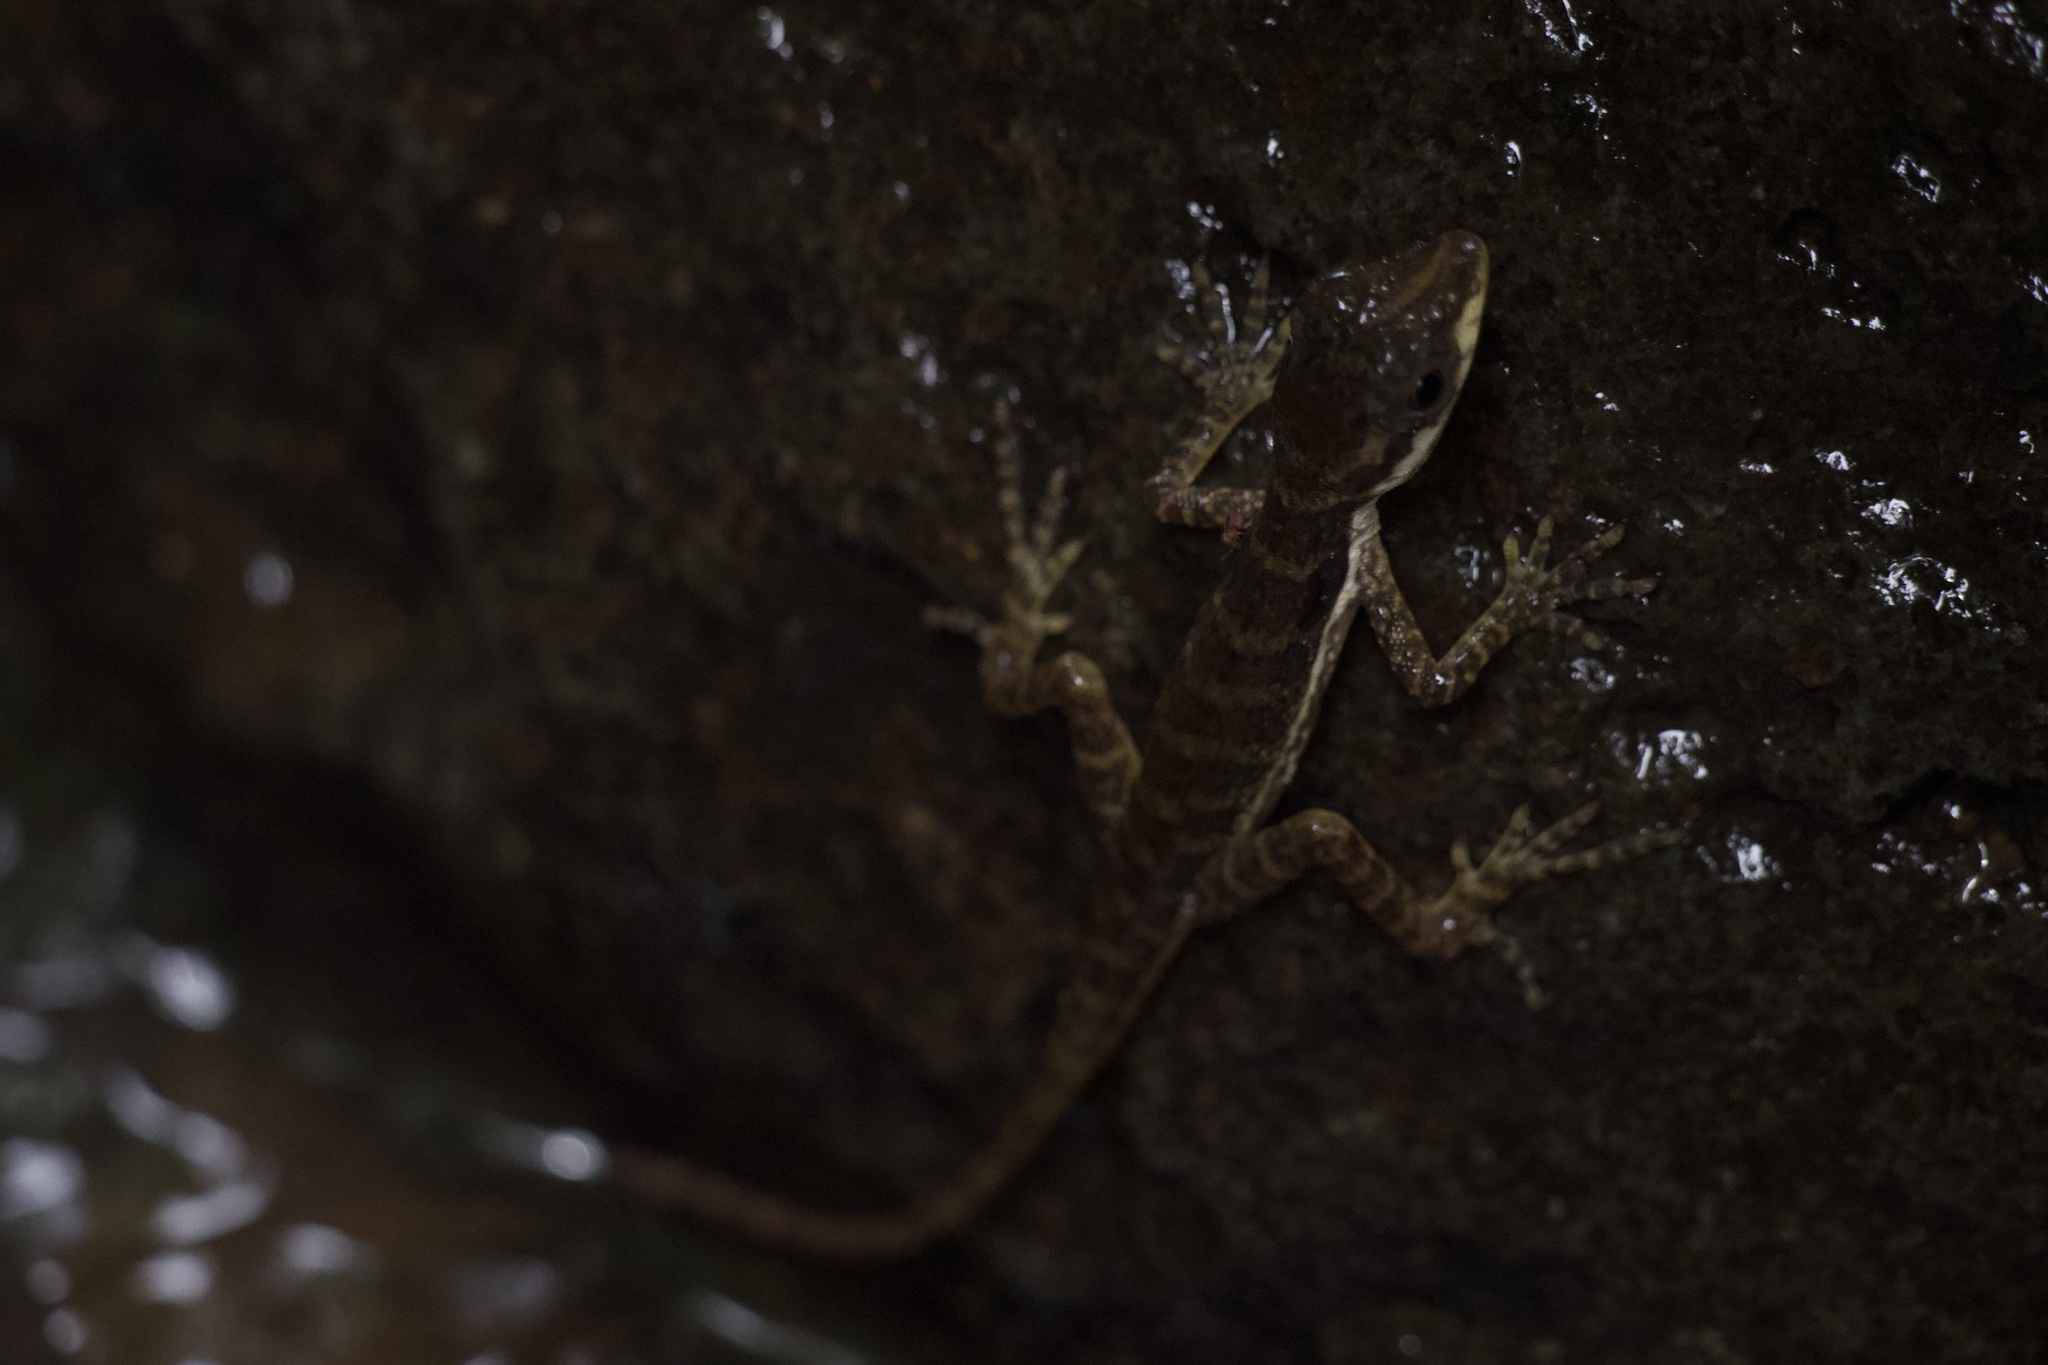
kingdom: Animalia
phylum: Chordata
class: Squamata
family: Dactyloidae
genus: Anolis
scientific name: Anolis oxylophus
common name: Stream anole
